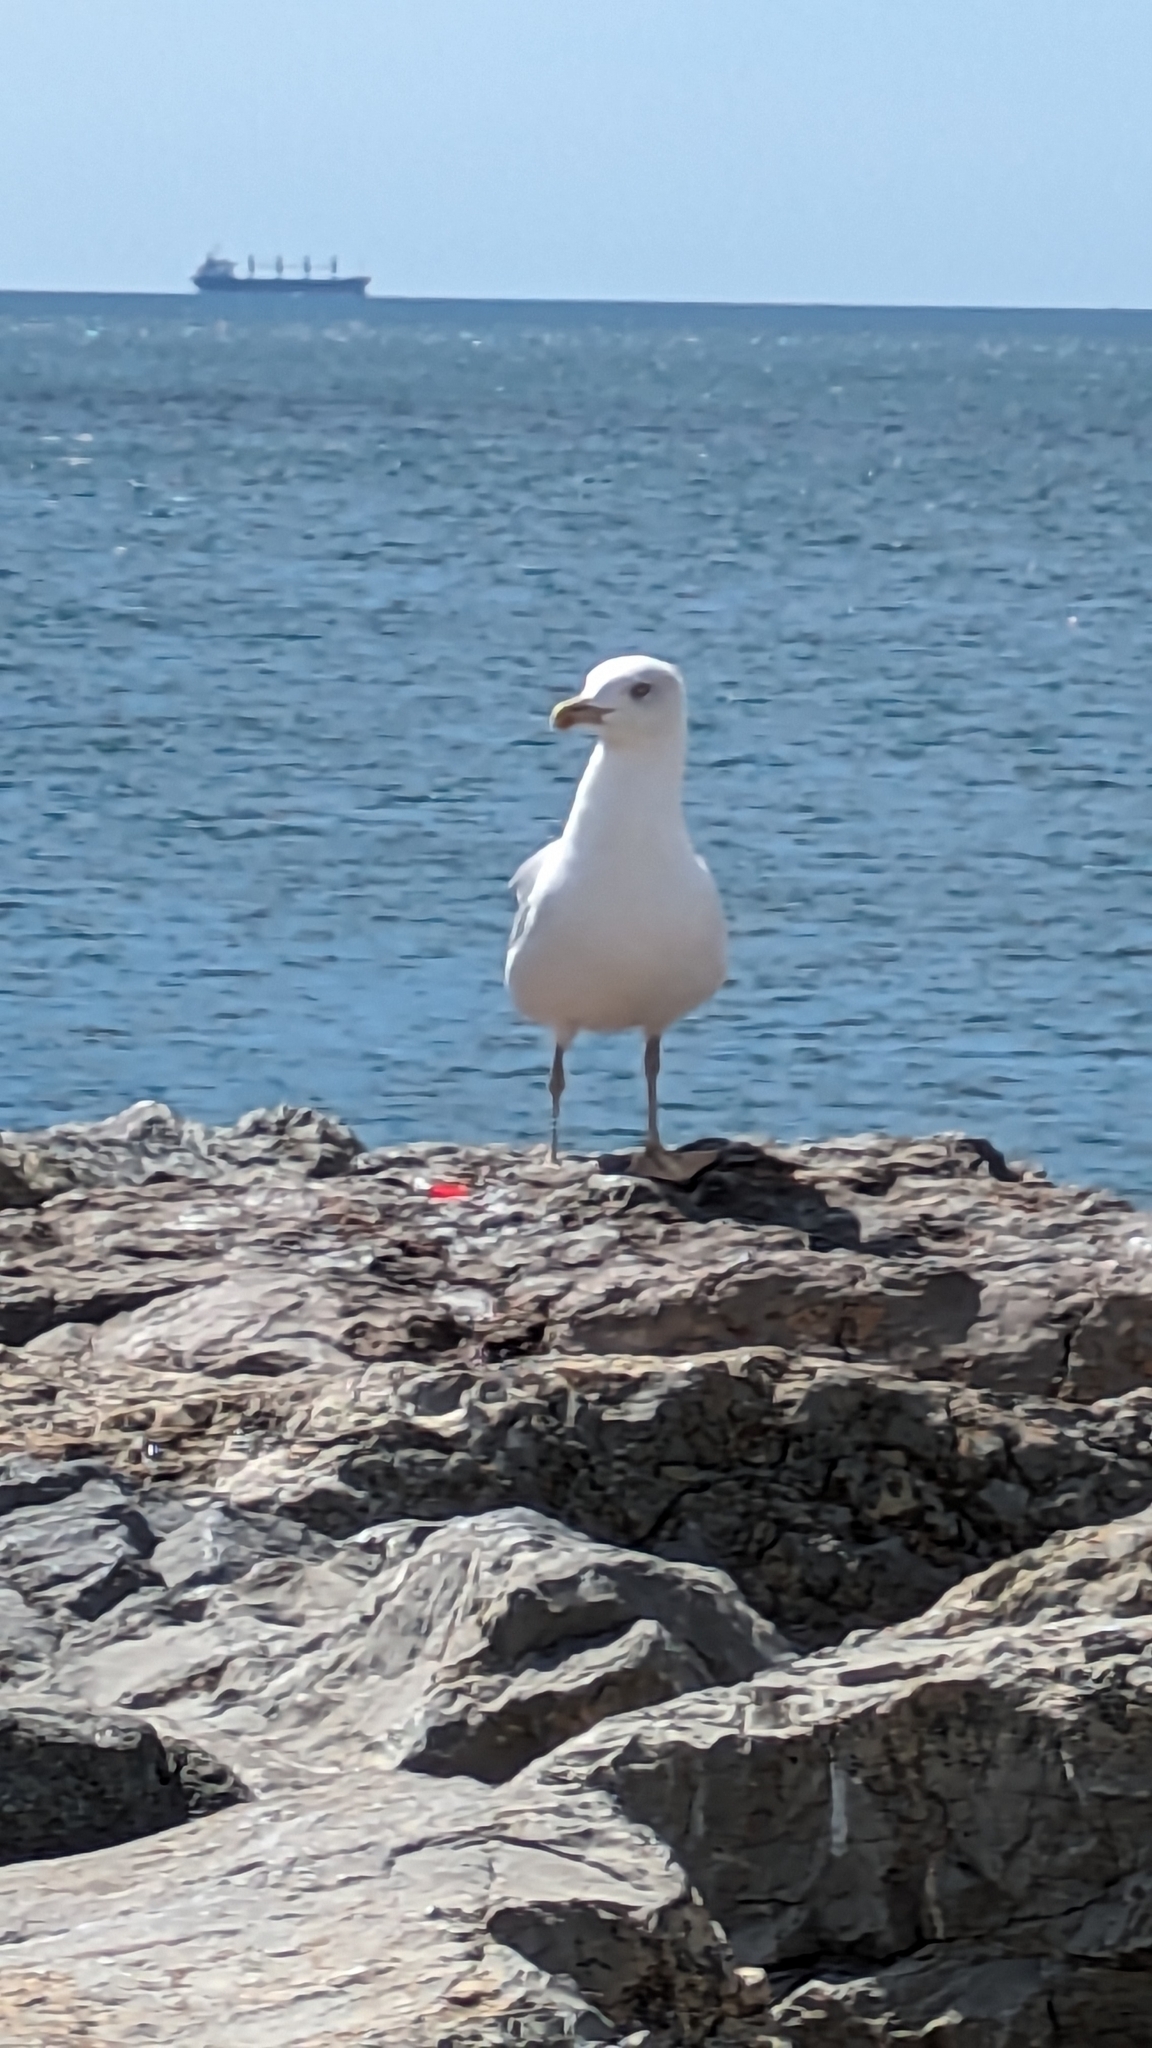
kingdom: Animalia
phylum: Chordata
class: Aves
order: Charadriiformes
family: Laridae
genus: Larus
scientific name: Larus michahellis
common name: Yellow-legged gull
